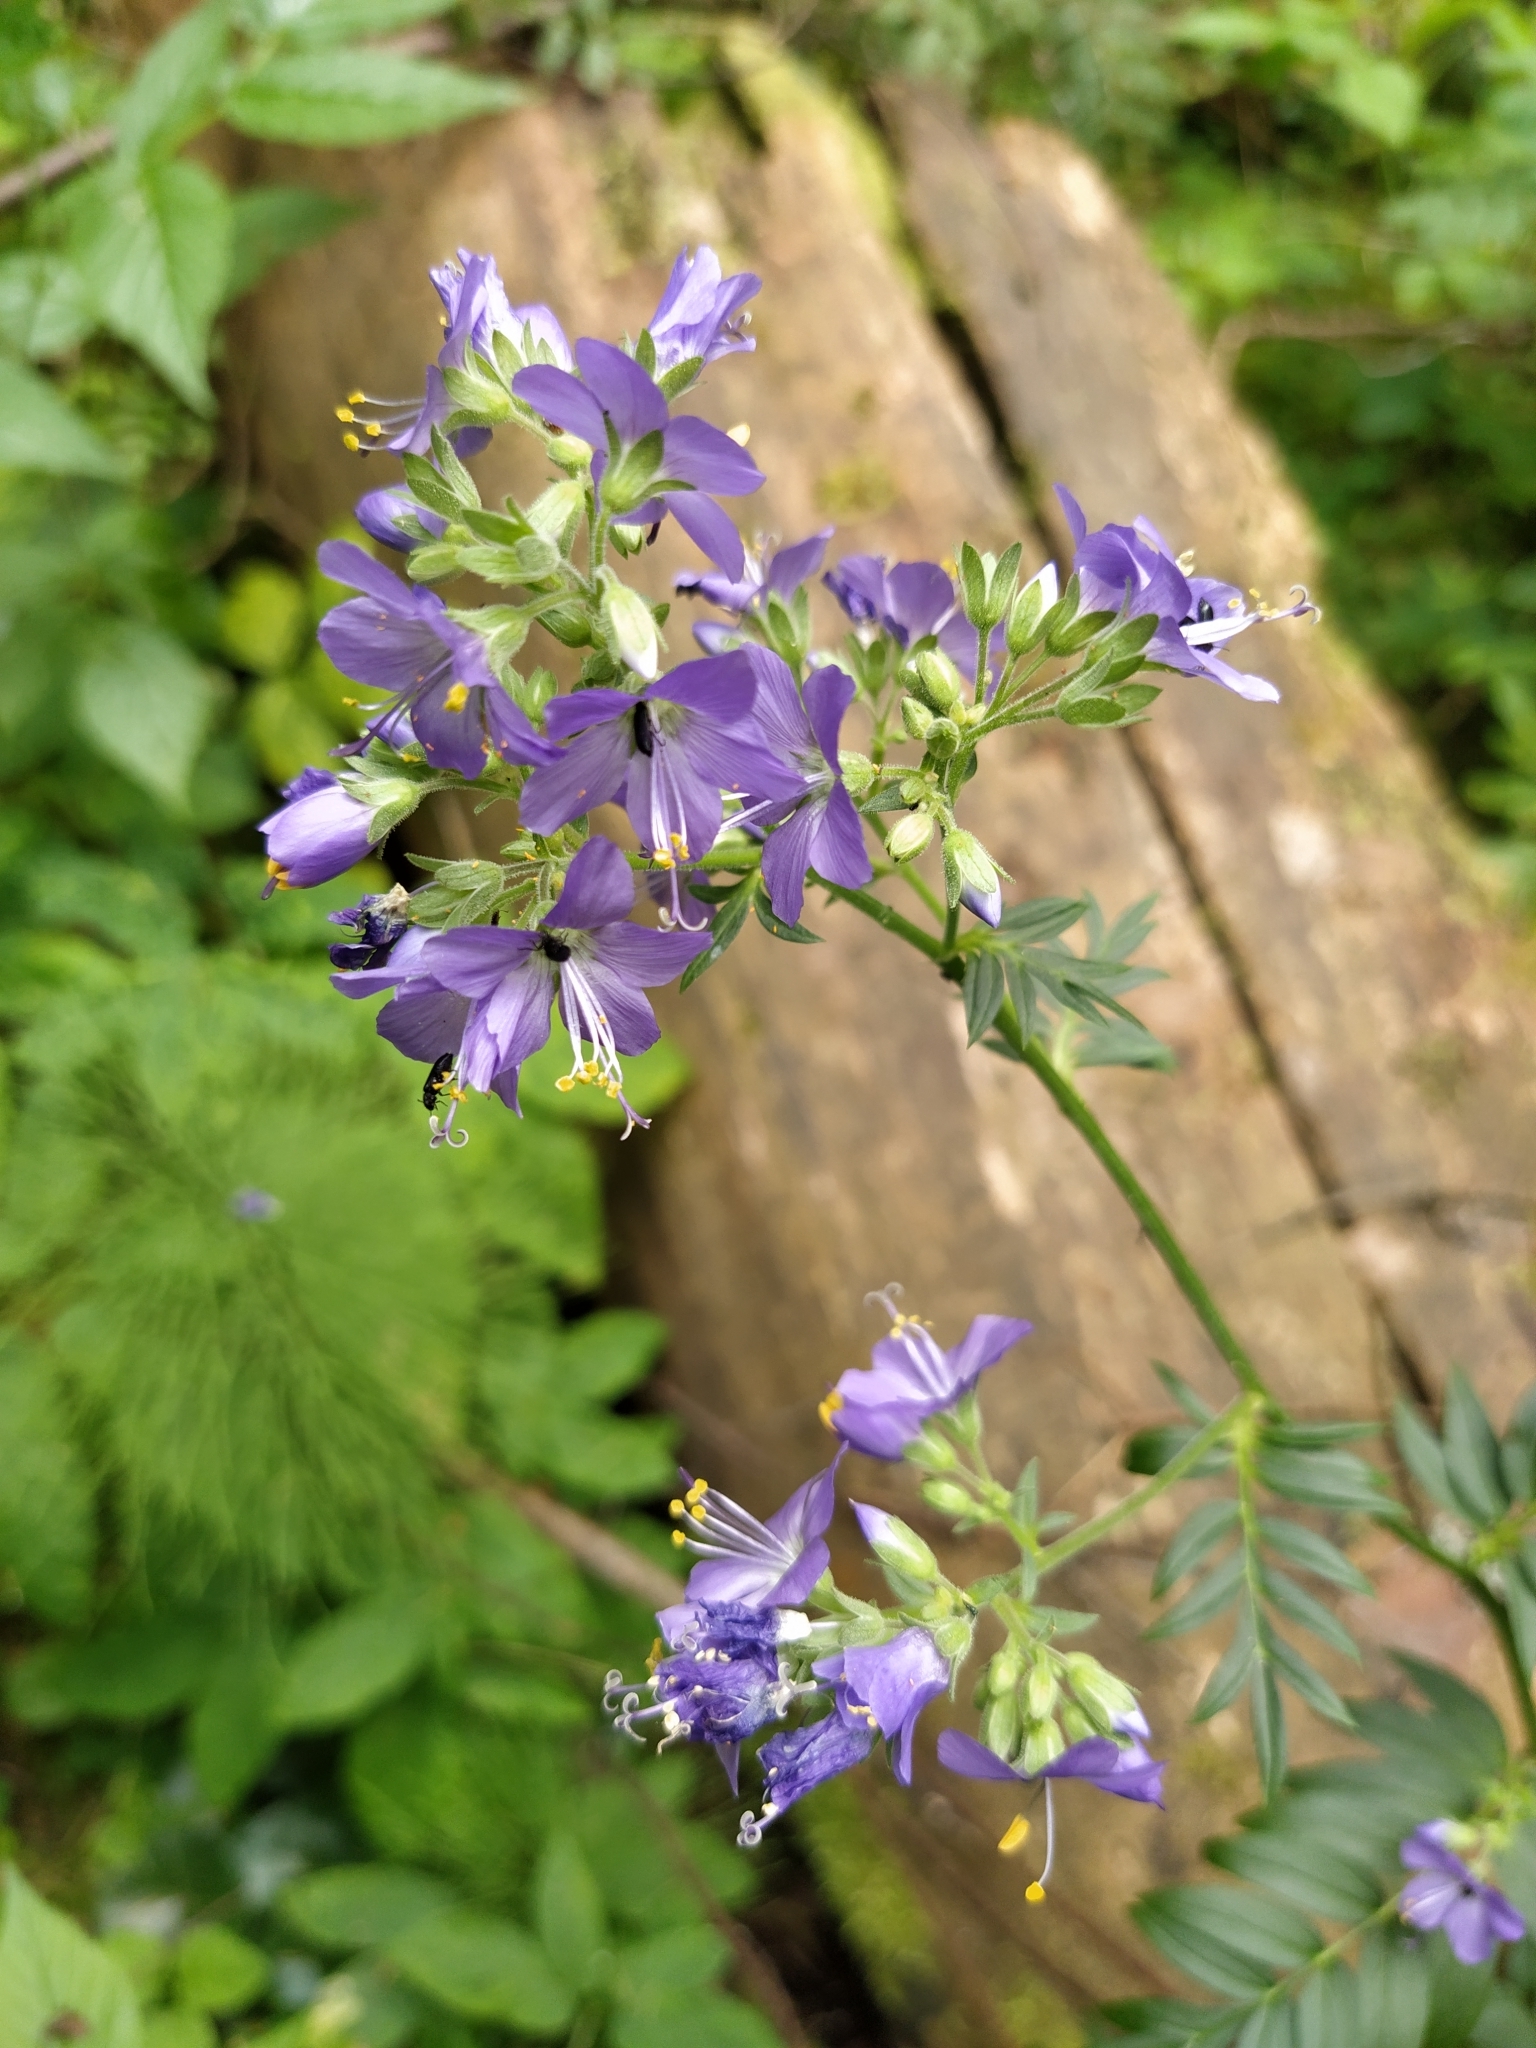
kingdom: Plantae
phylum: Tracheophyta
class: Magnoliopsida
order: Ericales
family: Polemoniaceae
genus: Polemonium
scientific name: Polemonium caeruleum
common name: Jacob's-ladder
